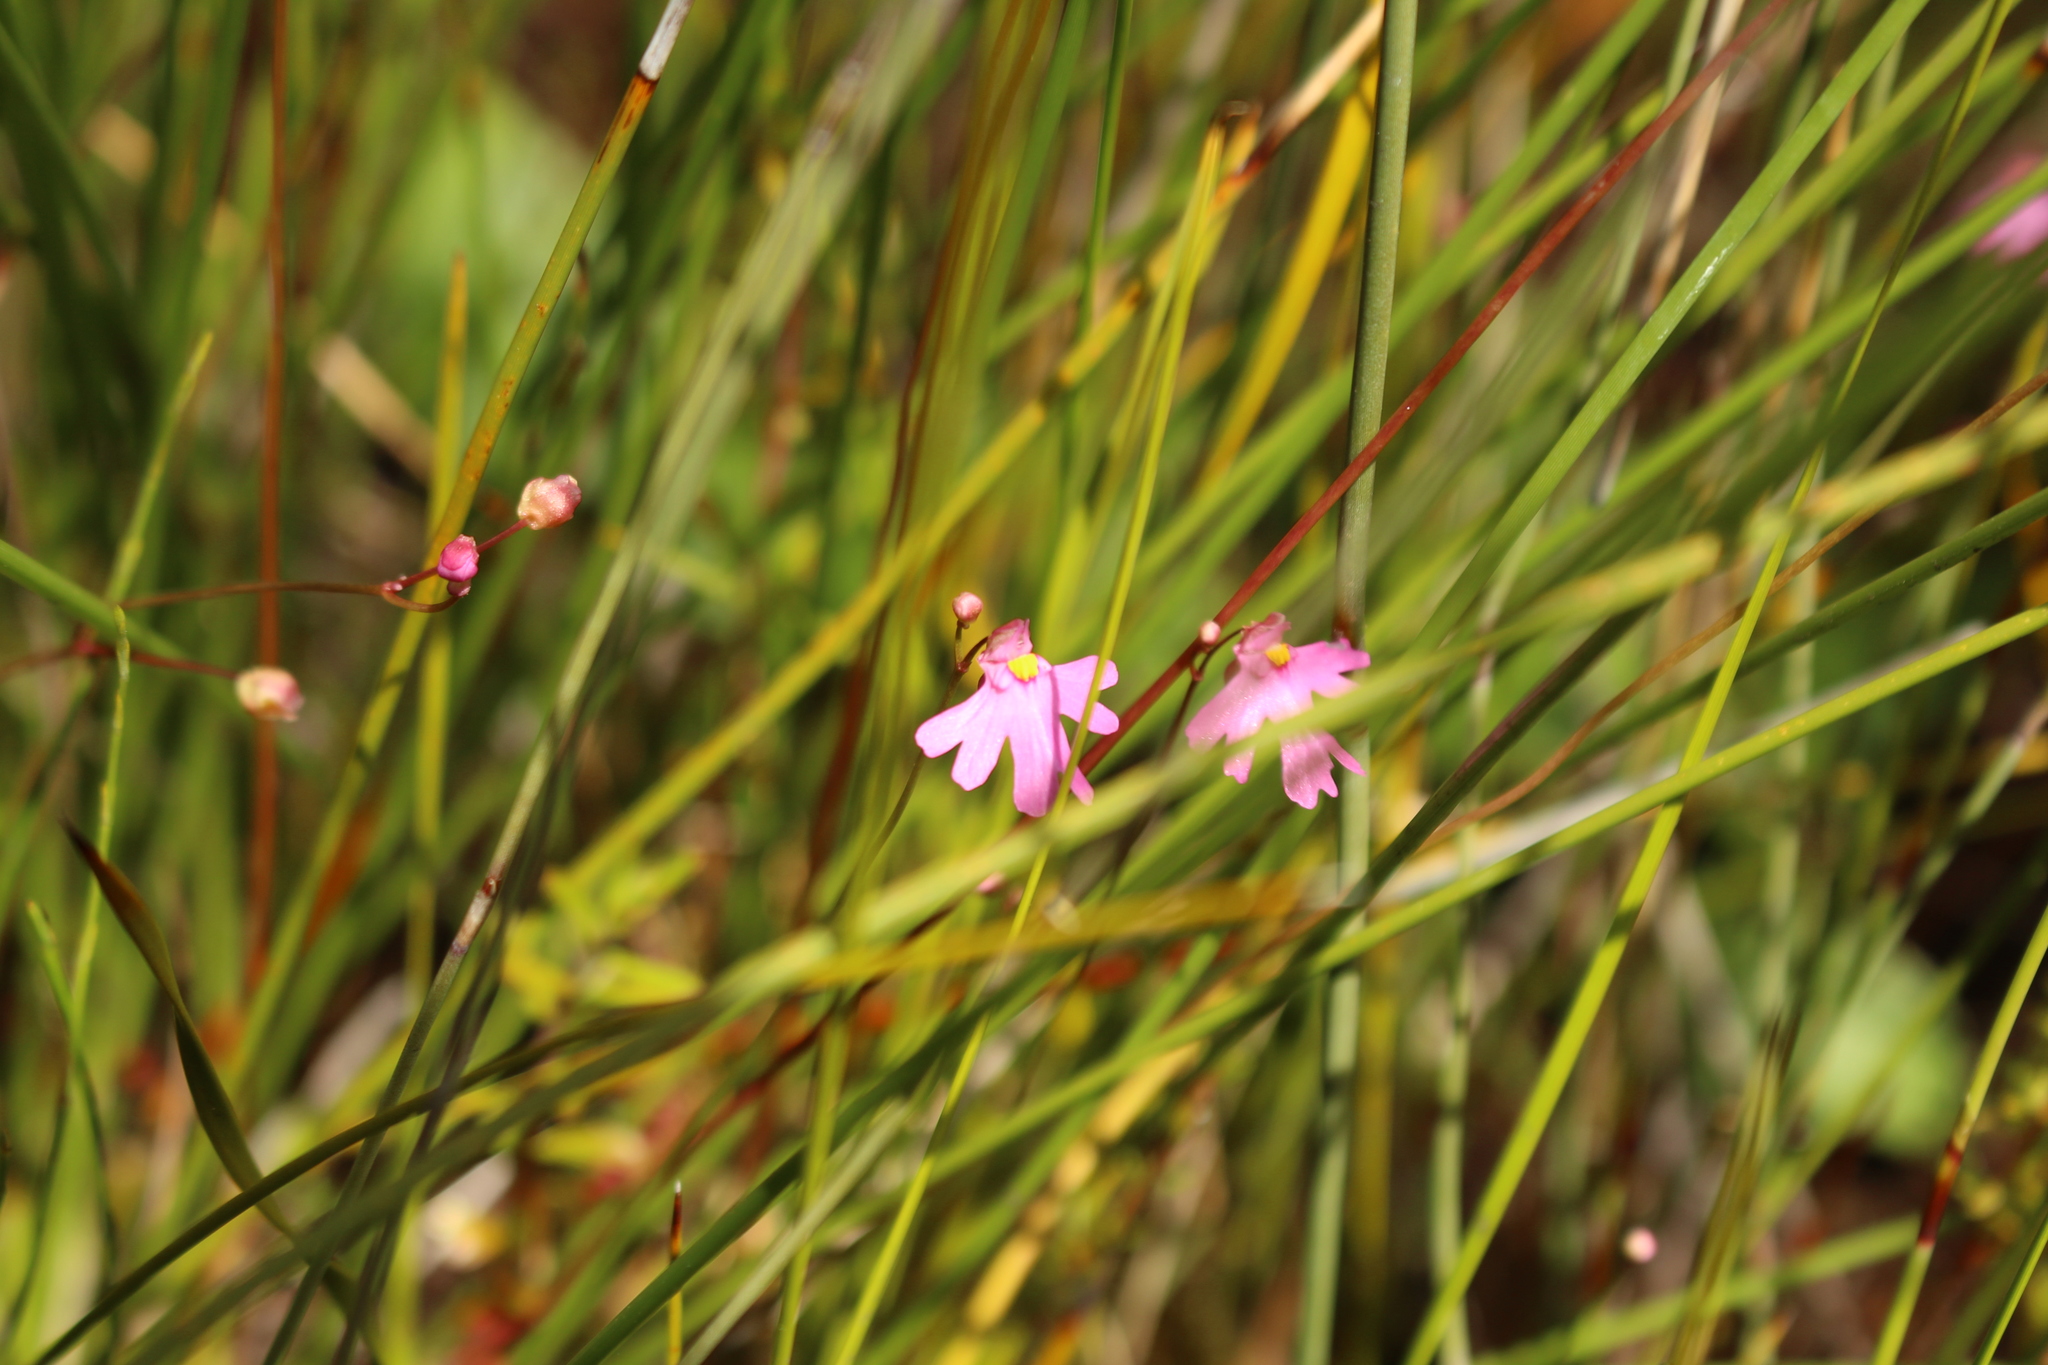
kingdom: Plantae
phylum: Tracheophyta
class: Magnoliopsida
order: Lamiales
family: Lentibulariaceae
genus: Utricularia
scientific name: Utricularia multifida
